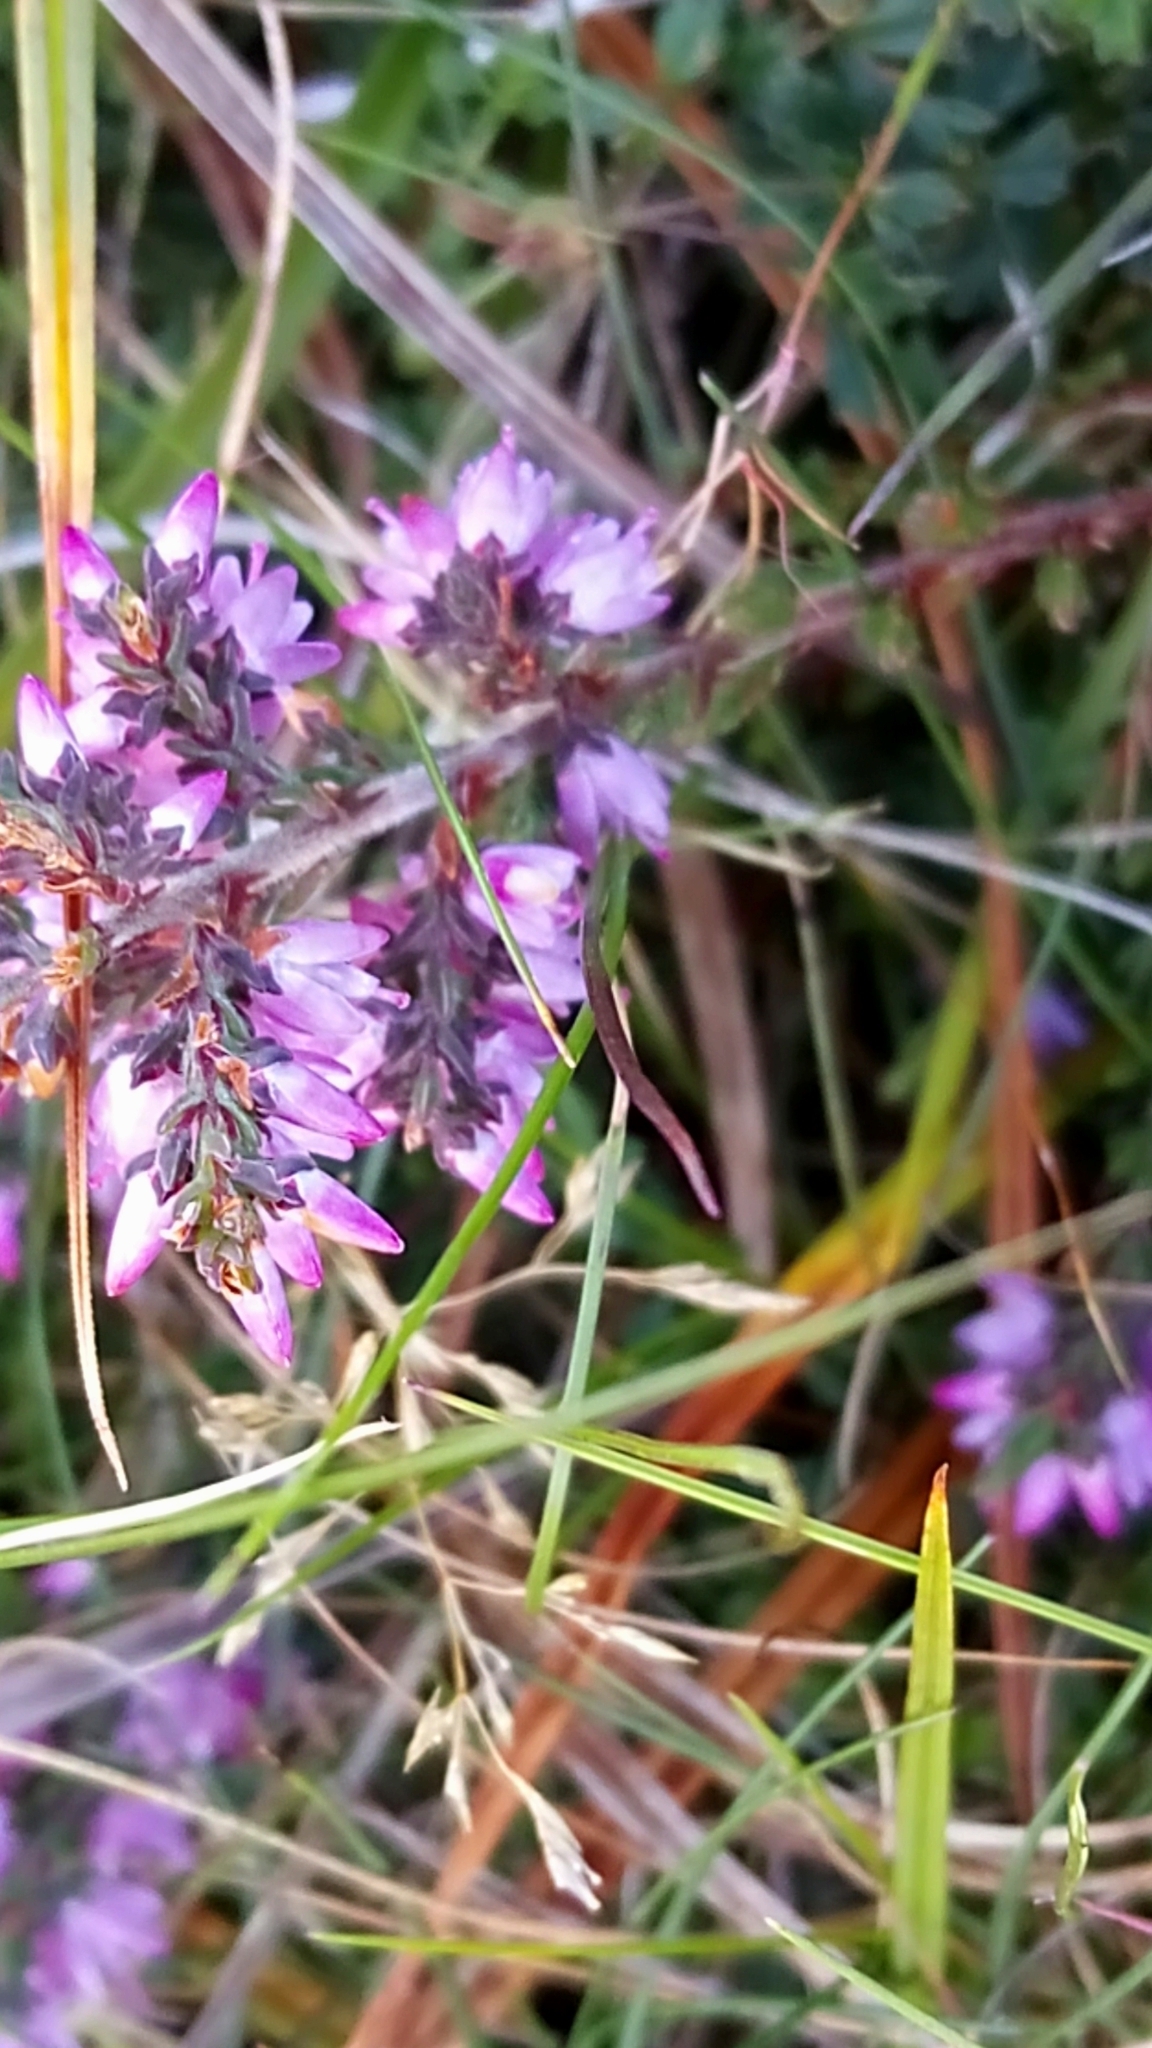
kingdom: Plantae
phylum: Tracheophyta
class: Magnoliopsida
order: Ericales
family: Ericaceae
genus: Calluna
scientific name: Calluna vulgaris
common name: Heather
